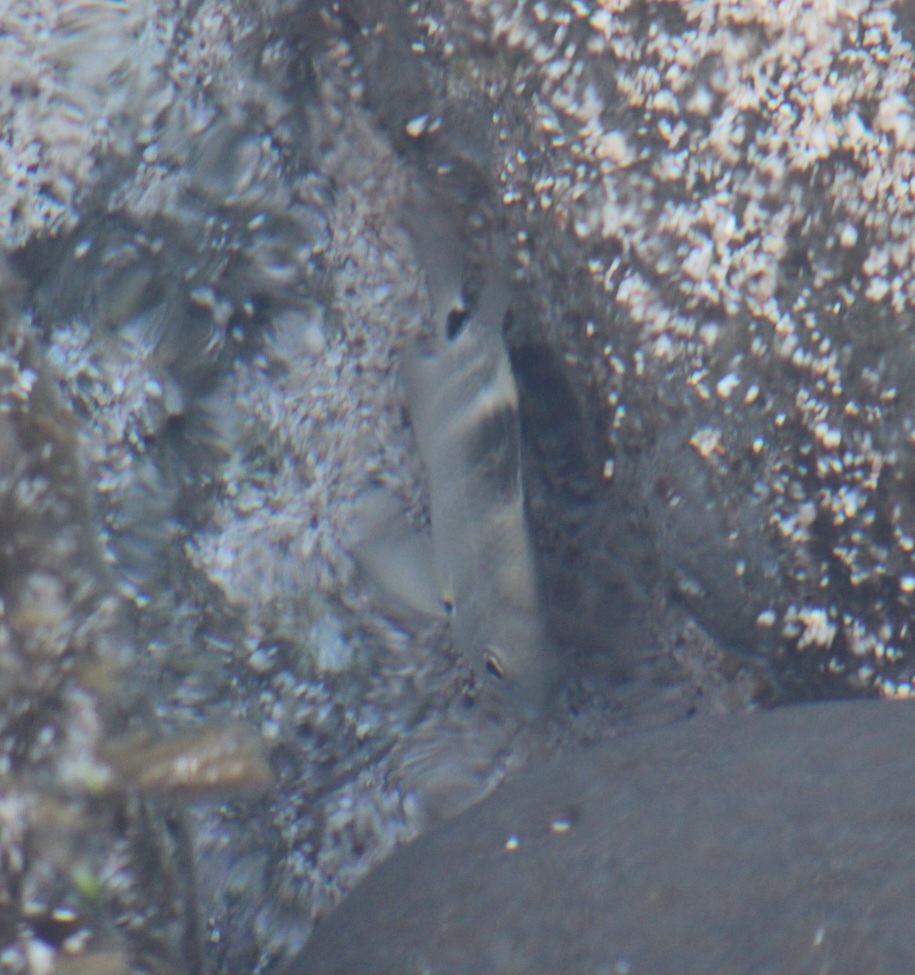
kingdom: Animalia
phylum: Chordata
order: Perciformes
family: Pomacentridae
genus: Abudefduf
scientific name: Abudefduf sordidus
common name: Blackspot sergeant
